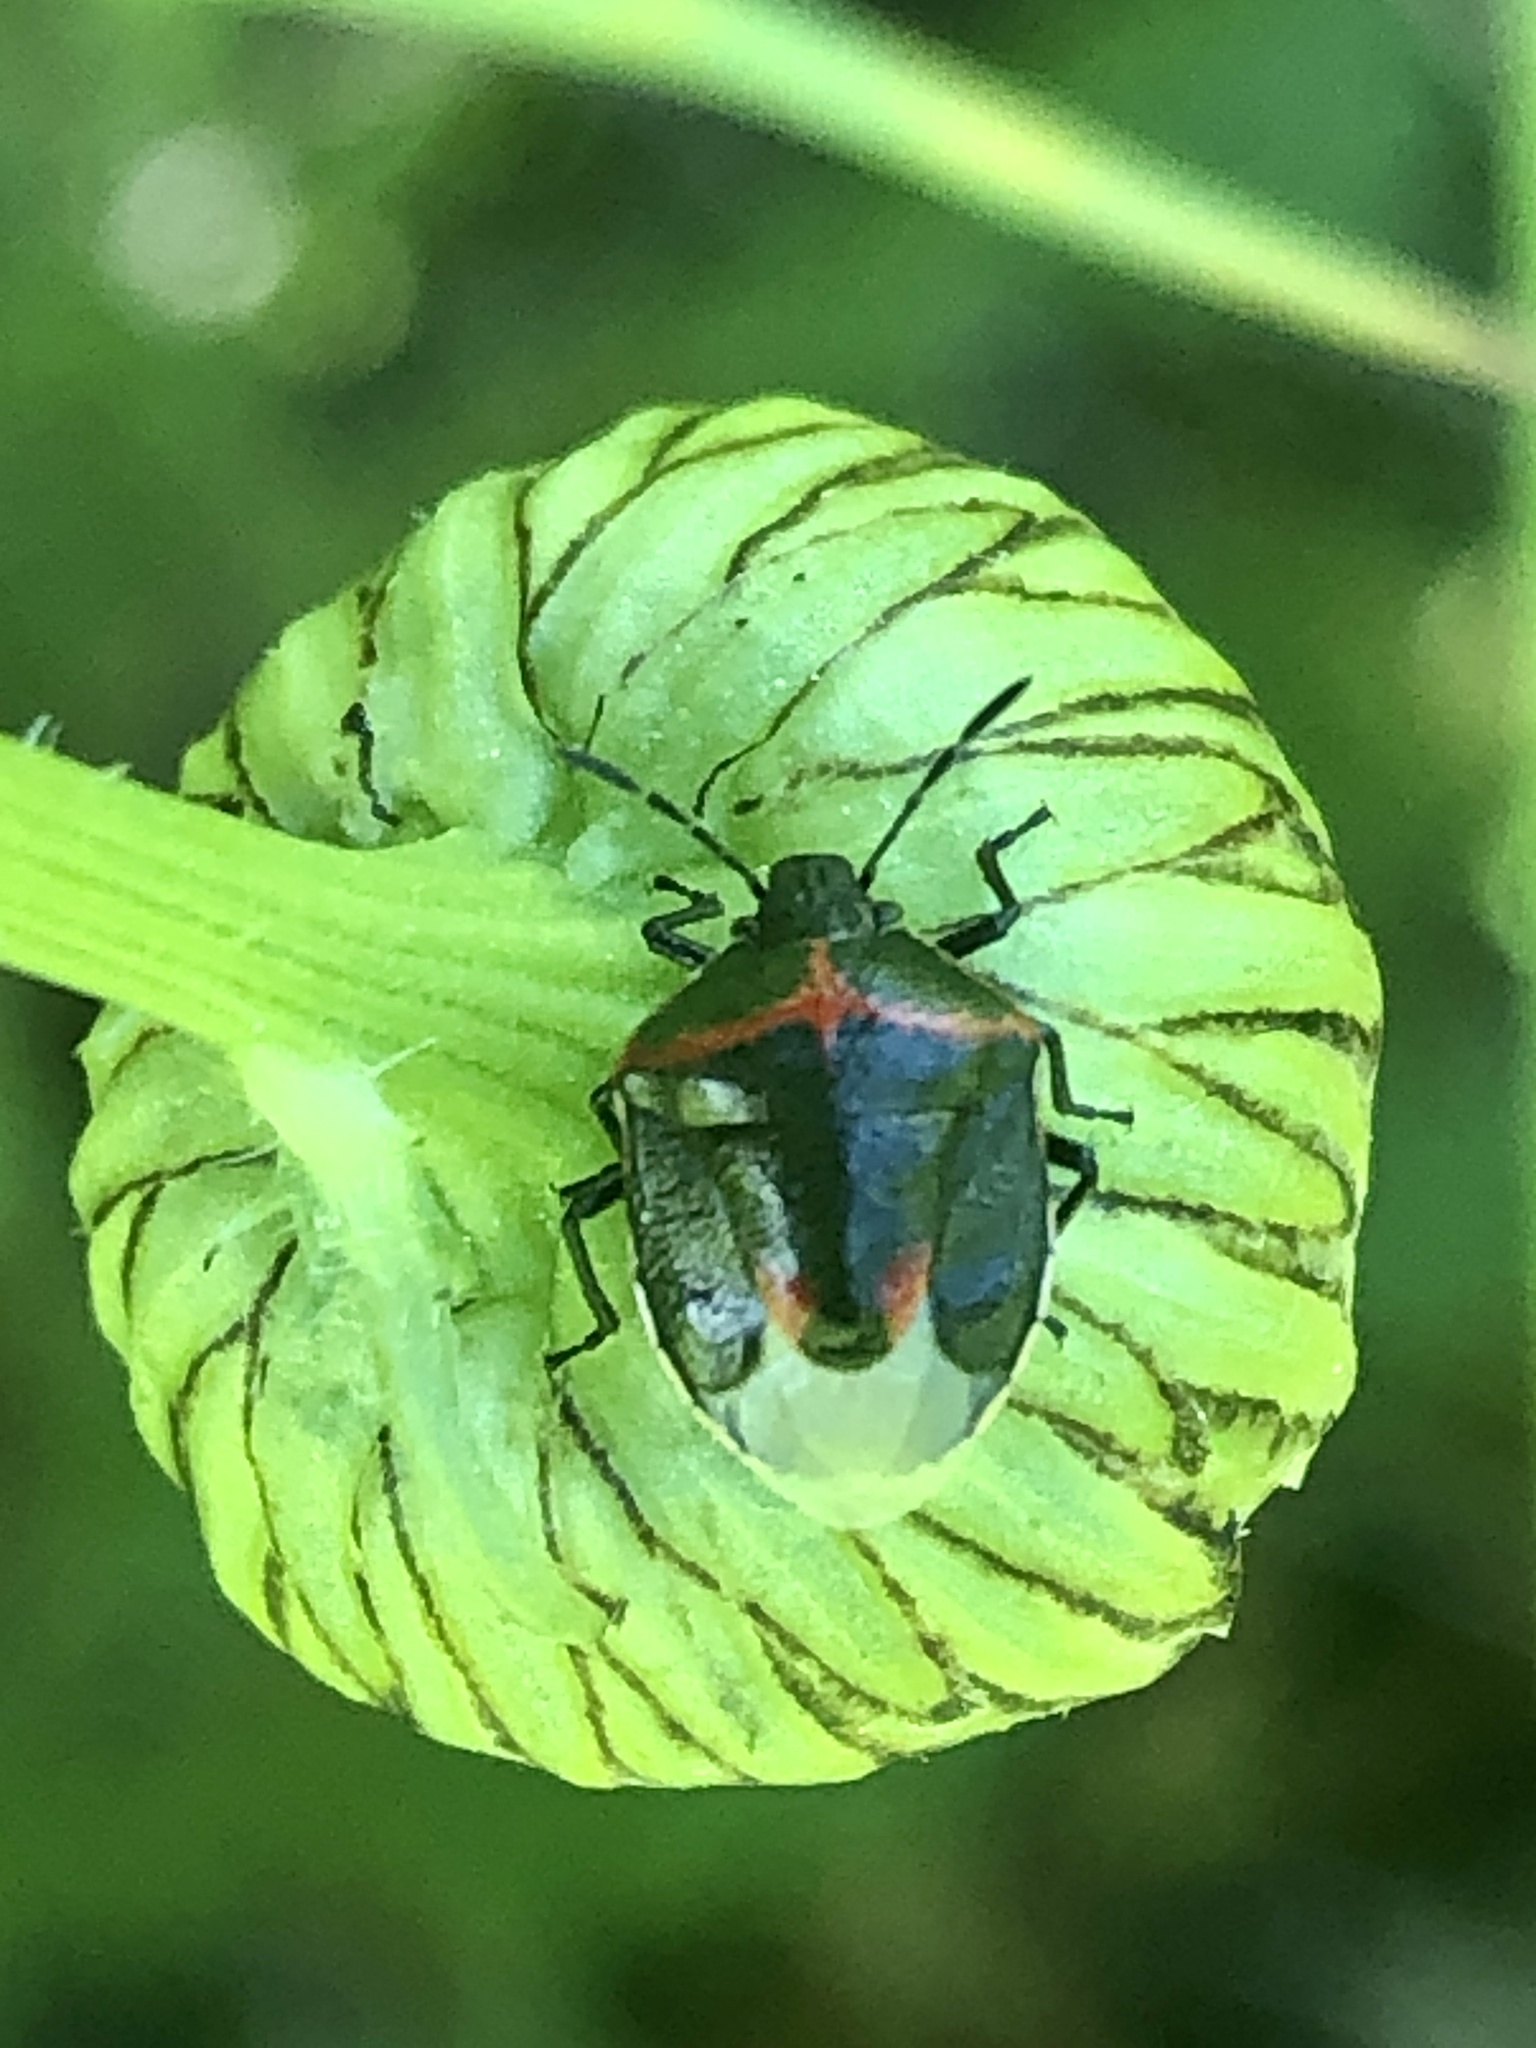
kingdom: Animalia
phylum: Arthropoda
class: Insecta
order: Hemiptera
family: Pentatomidae
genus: Cosmopepla
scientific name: Cosmopepla lintneriana
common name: Twice-stabbed stink bug
